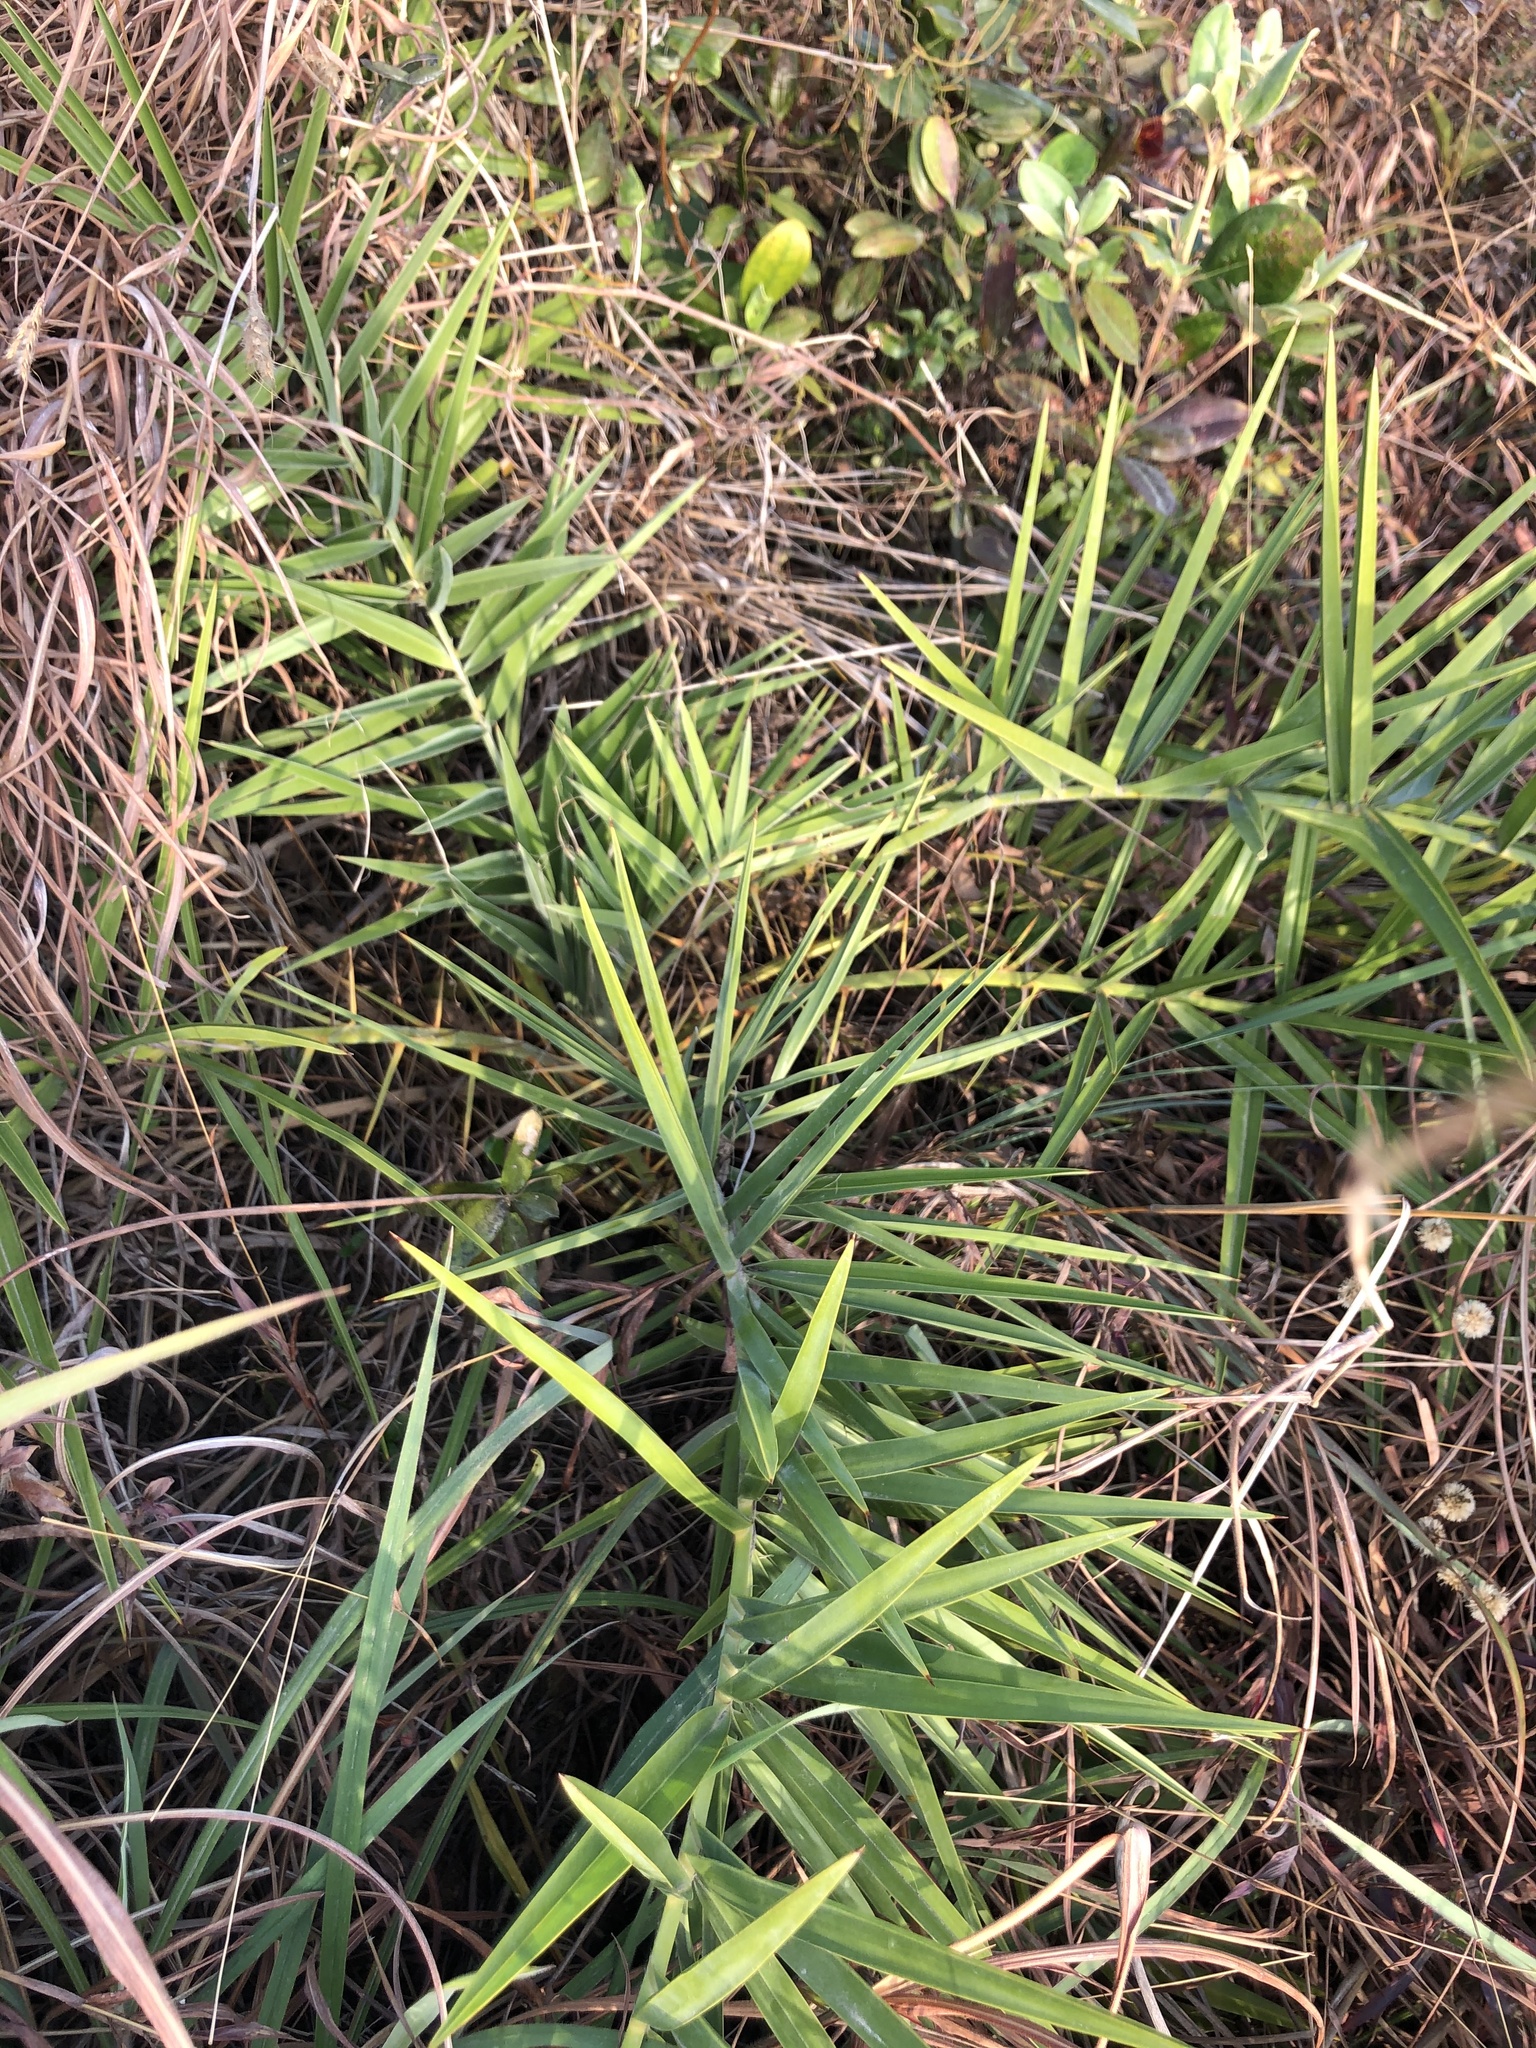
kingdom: Plantae
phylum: Tracheophyta
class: Liliopsida
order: Arecales
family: Arecaceae
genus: Phoenix
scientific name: Phoenix loureiroi
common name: Loureiro's palm
